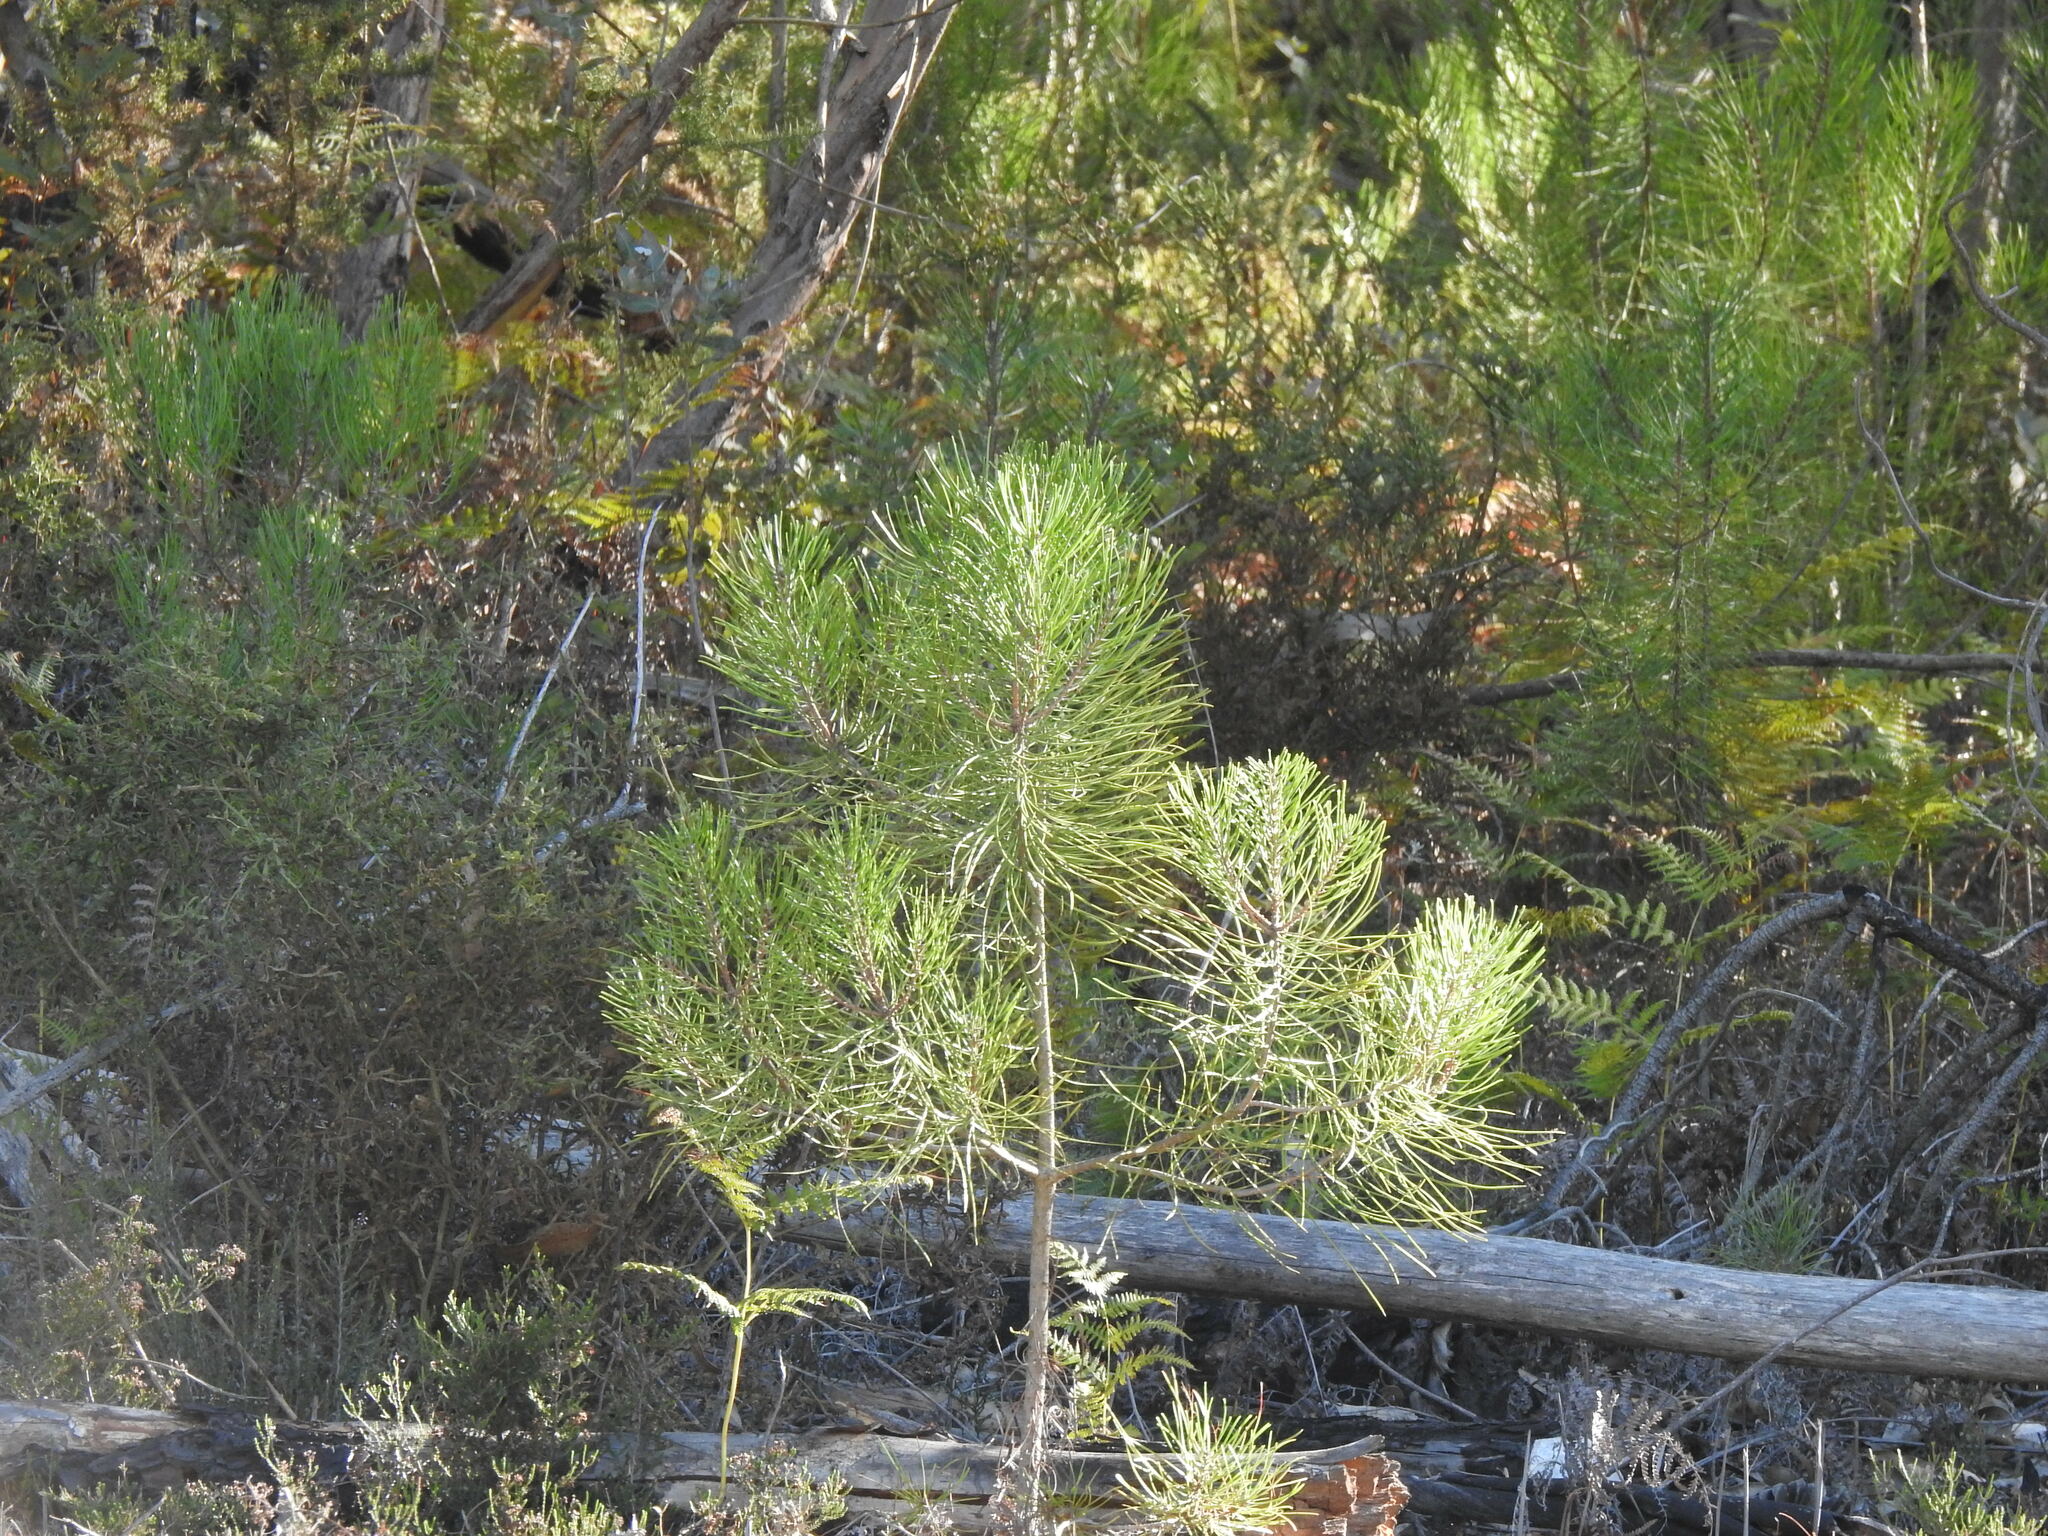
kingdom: Plantae
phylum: Tracheophyta
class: Pinopsida
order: Pinales
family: Pinaceae
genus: Pinus
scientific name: Pinus pinaster
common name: Maritime pine
